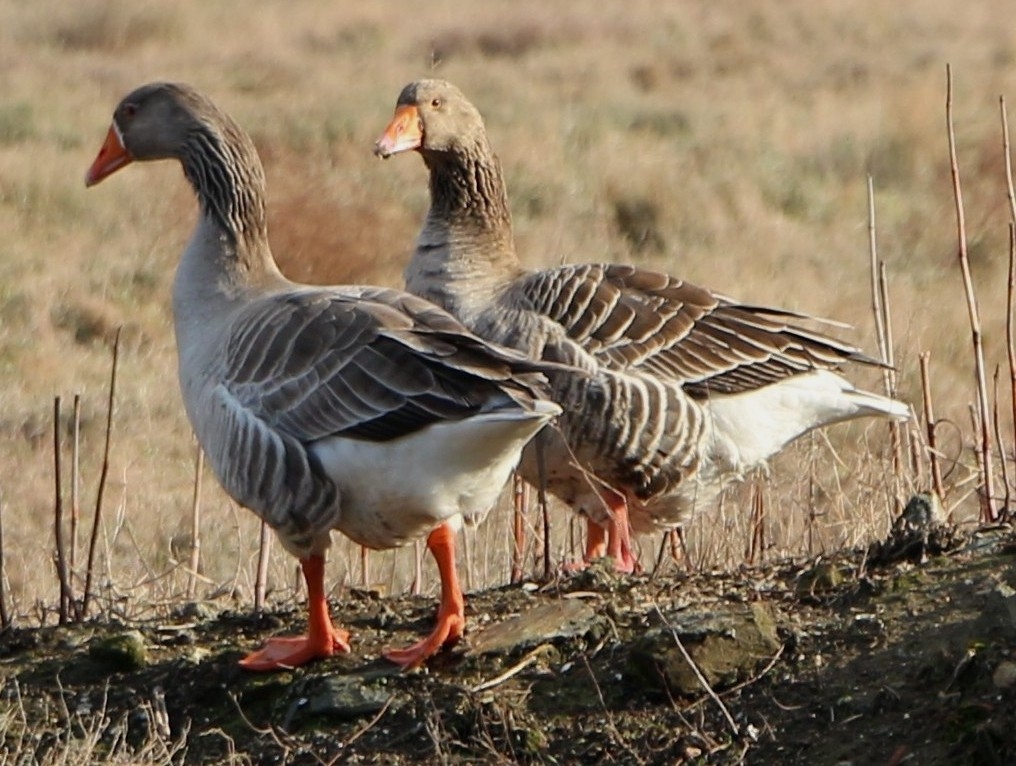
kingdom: Animalia
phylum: Chordata
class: Aves
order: Anseriformes
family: Anatidae
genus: Anser
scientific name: Anser anser
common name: Greylag goose
